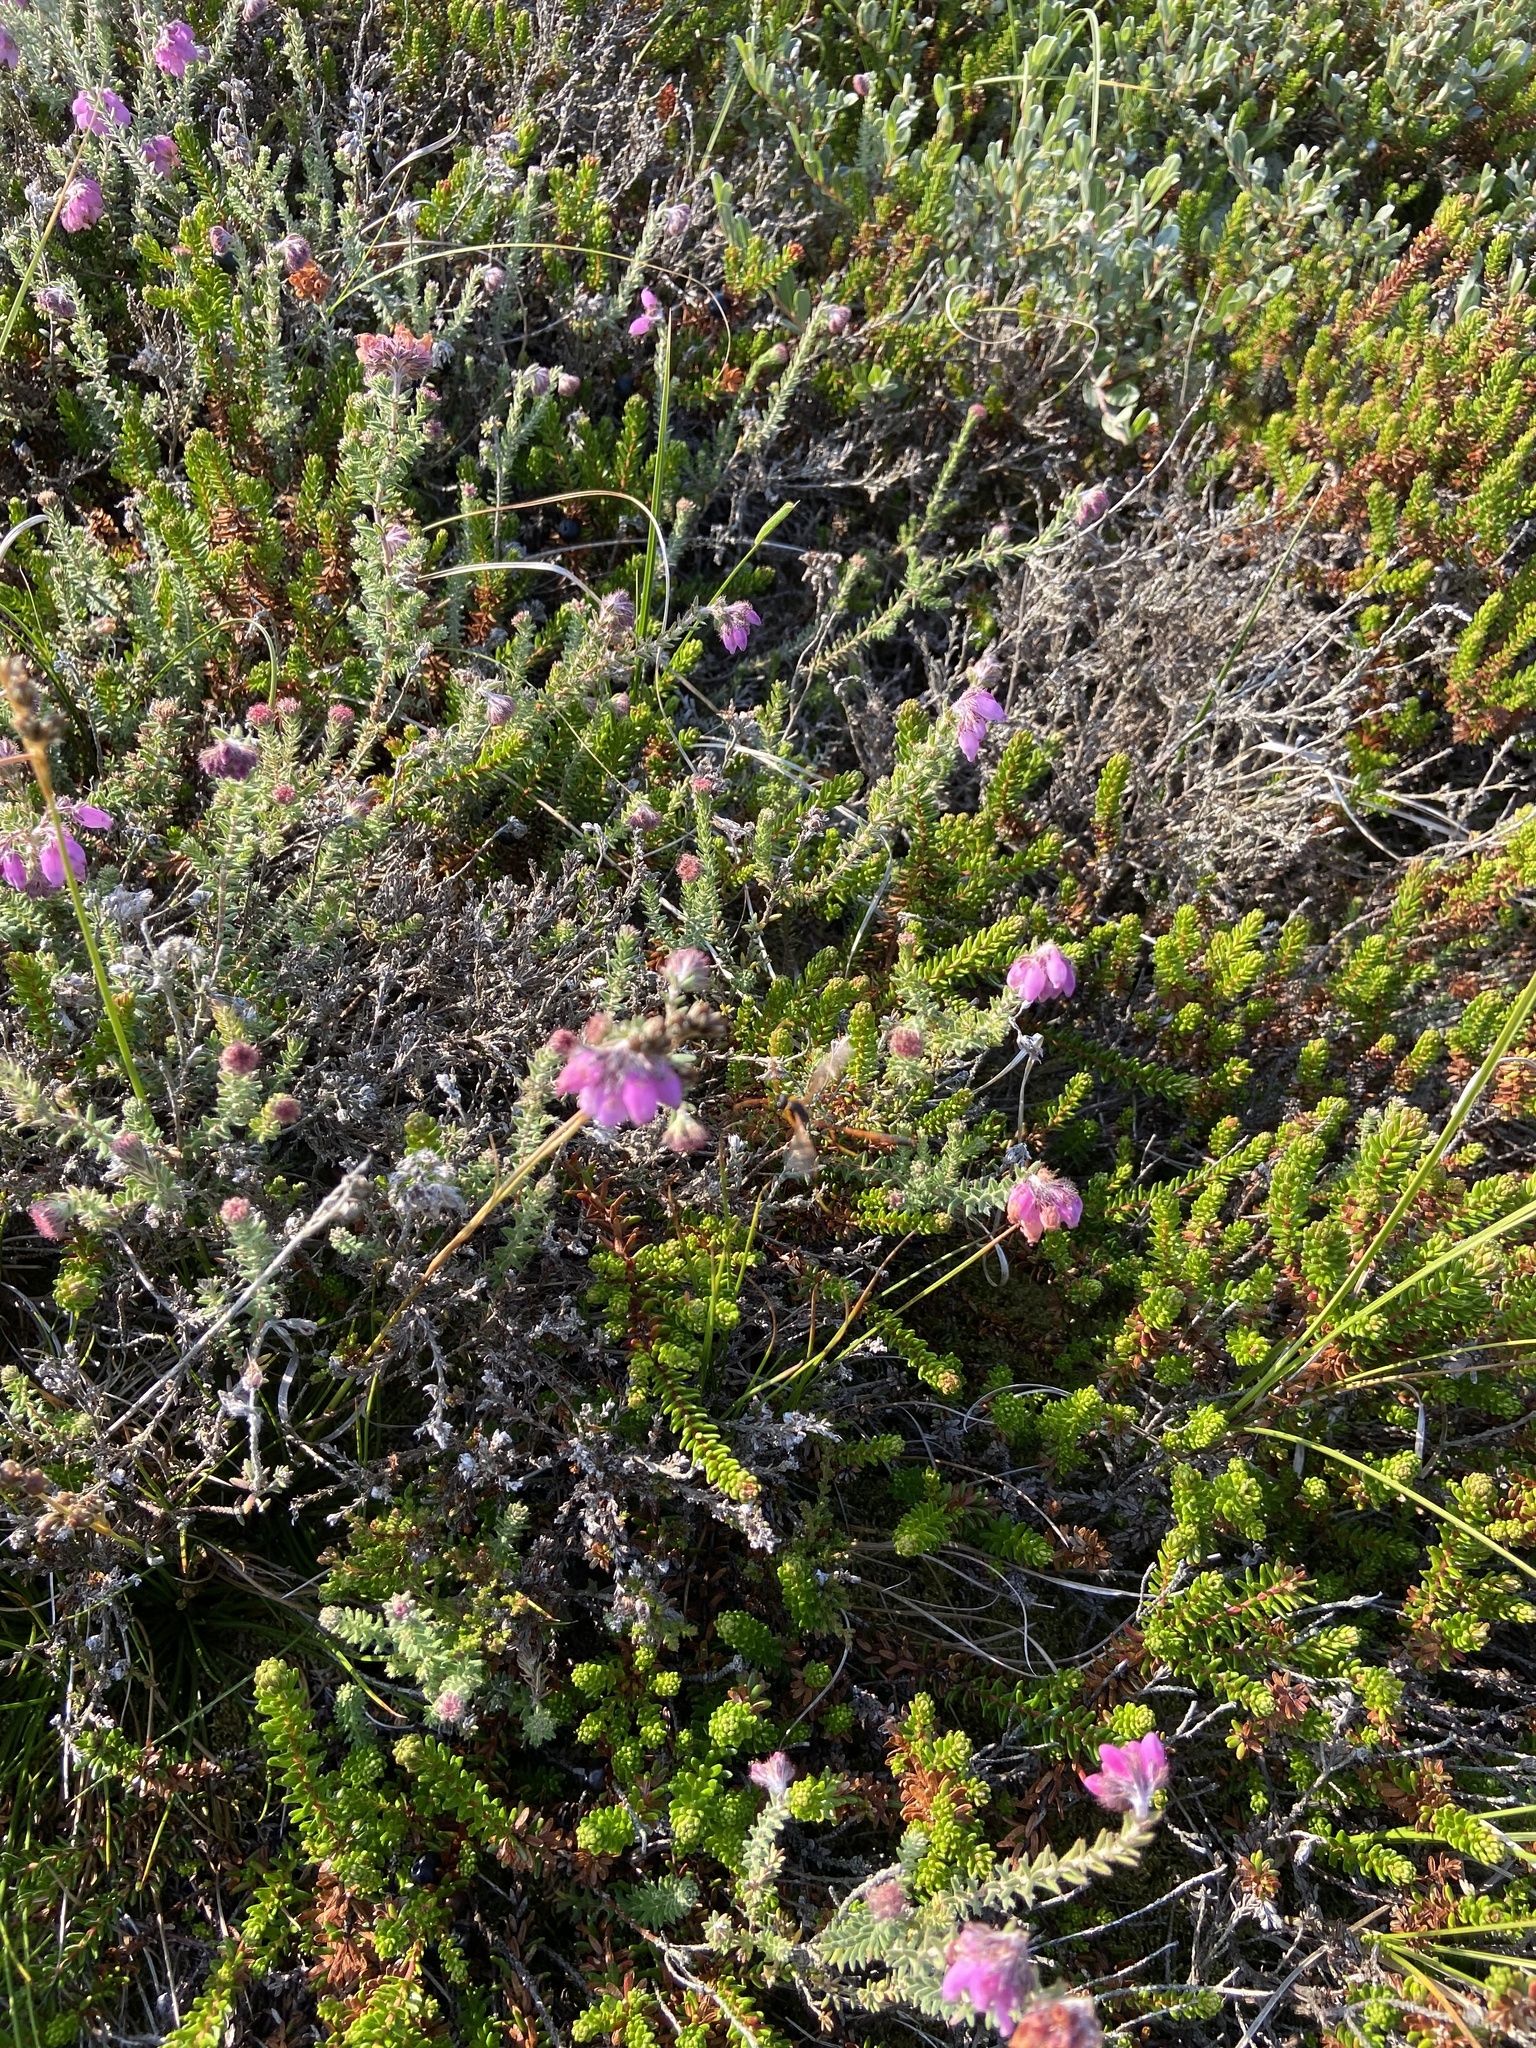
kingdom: Plantae
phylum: Tracheophyta
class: Magnoliopsida
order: Ericales
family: Ericaceae
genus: Erica
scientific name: Erica tetralix
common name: Cross-leaved heath
